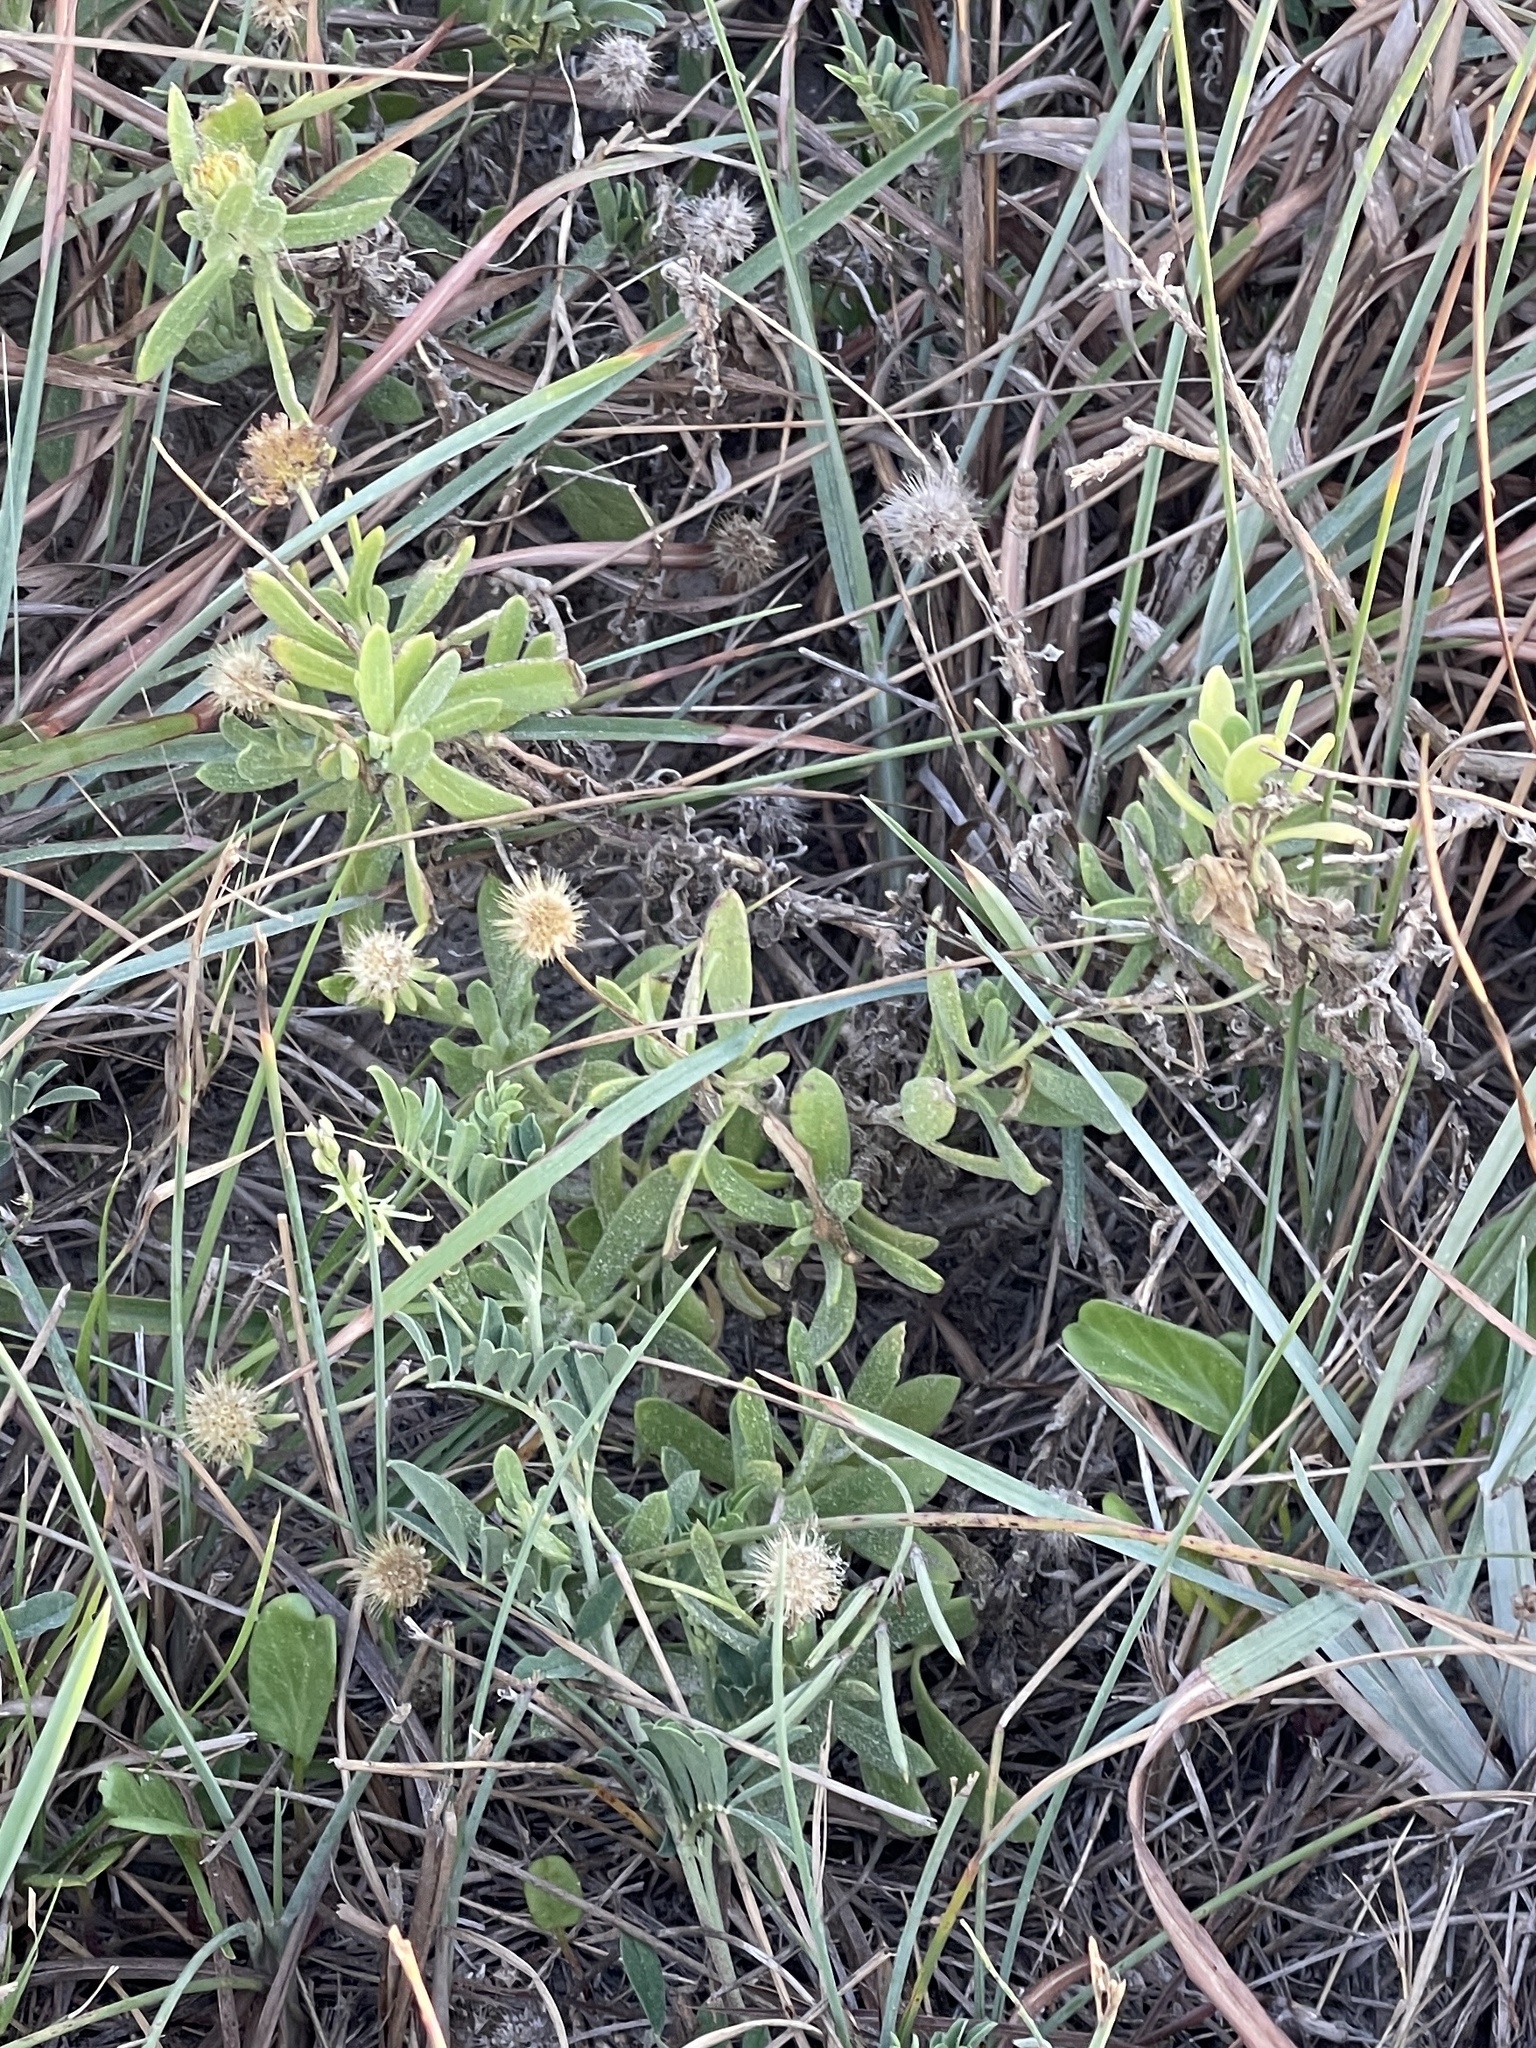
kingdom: Plantae
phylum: Tracheophyta
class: Magnoliopsida
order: Asterales
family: Asteraceae
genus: Borrichia
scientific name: Borrichia frutescens
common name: Sea oxeye
